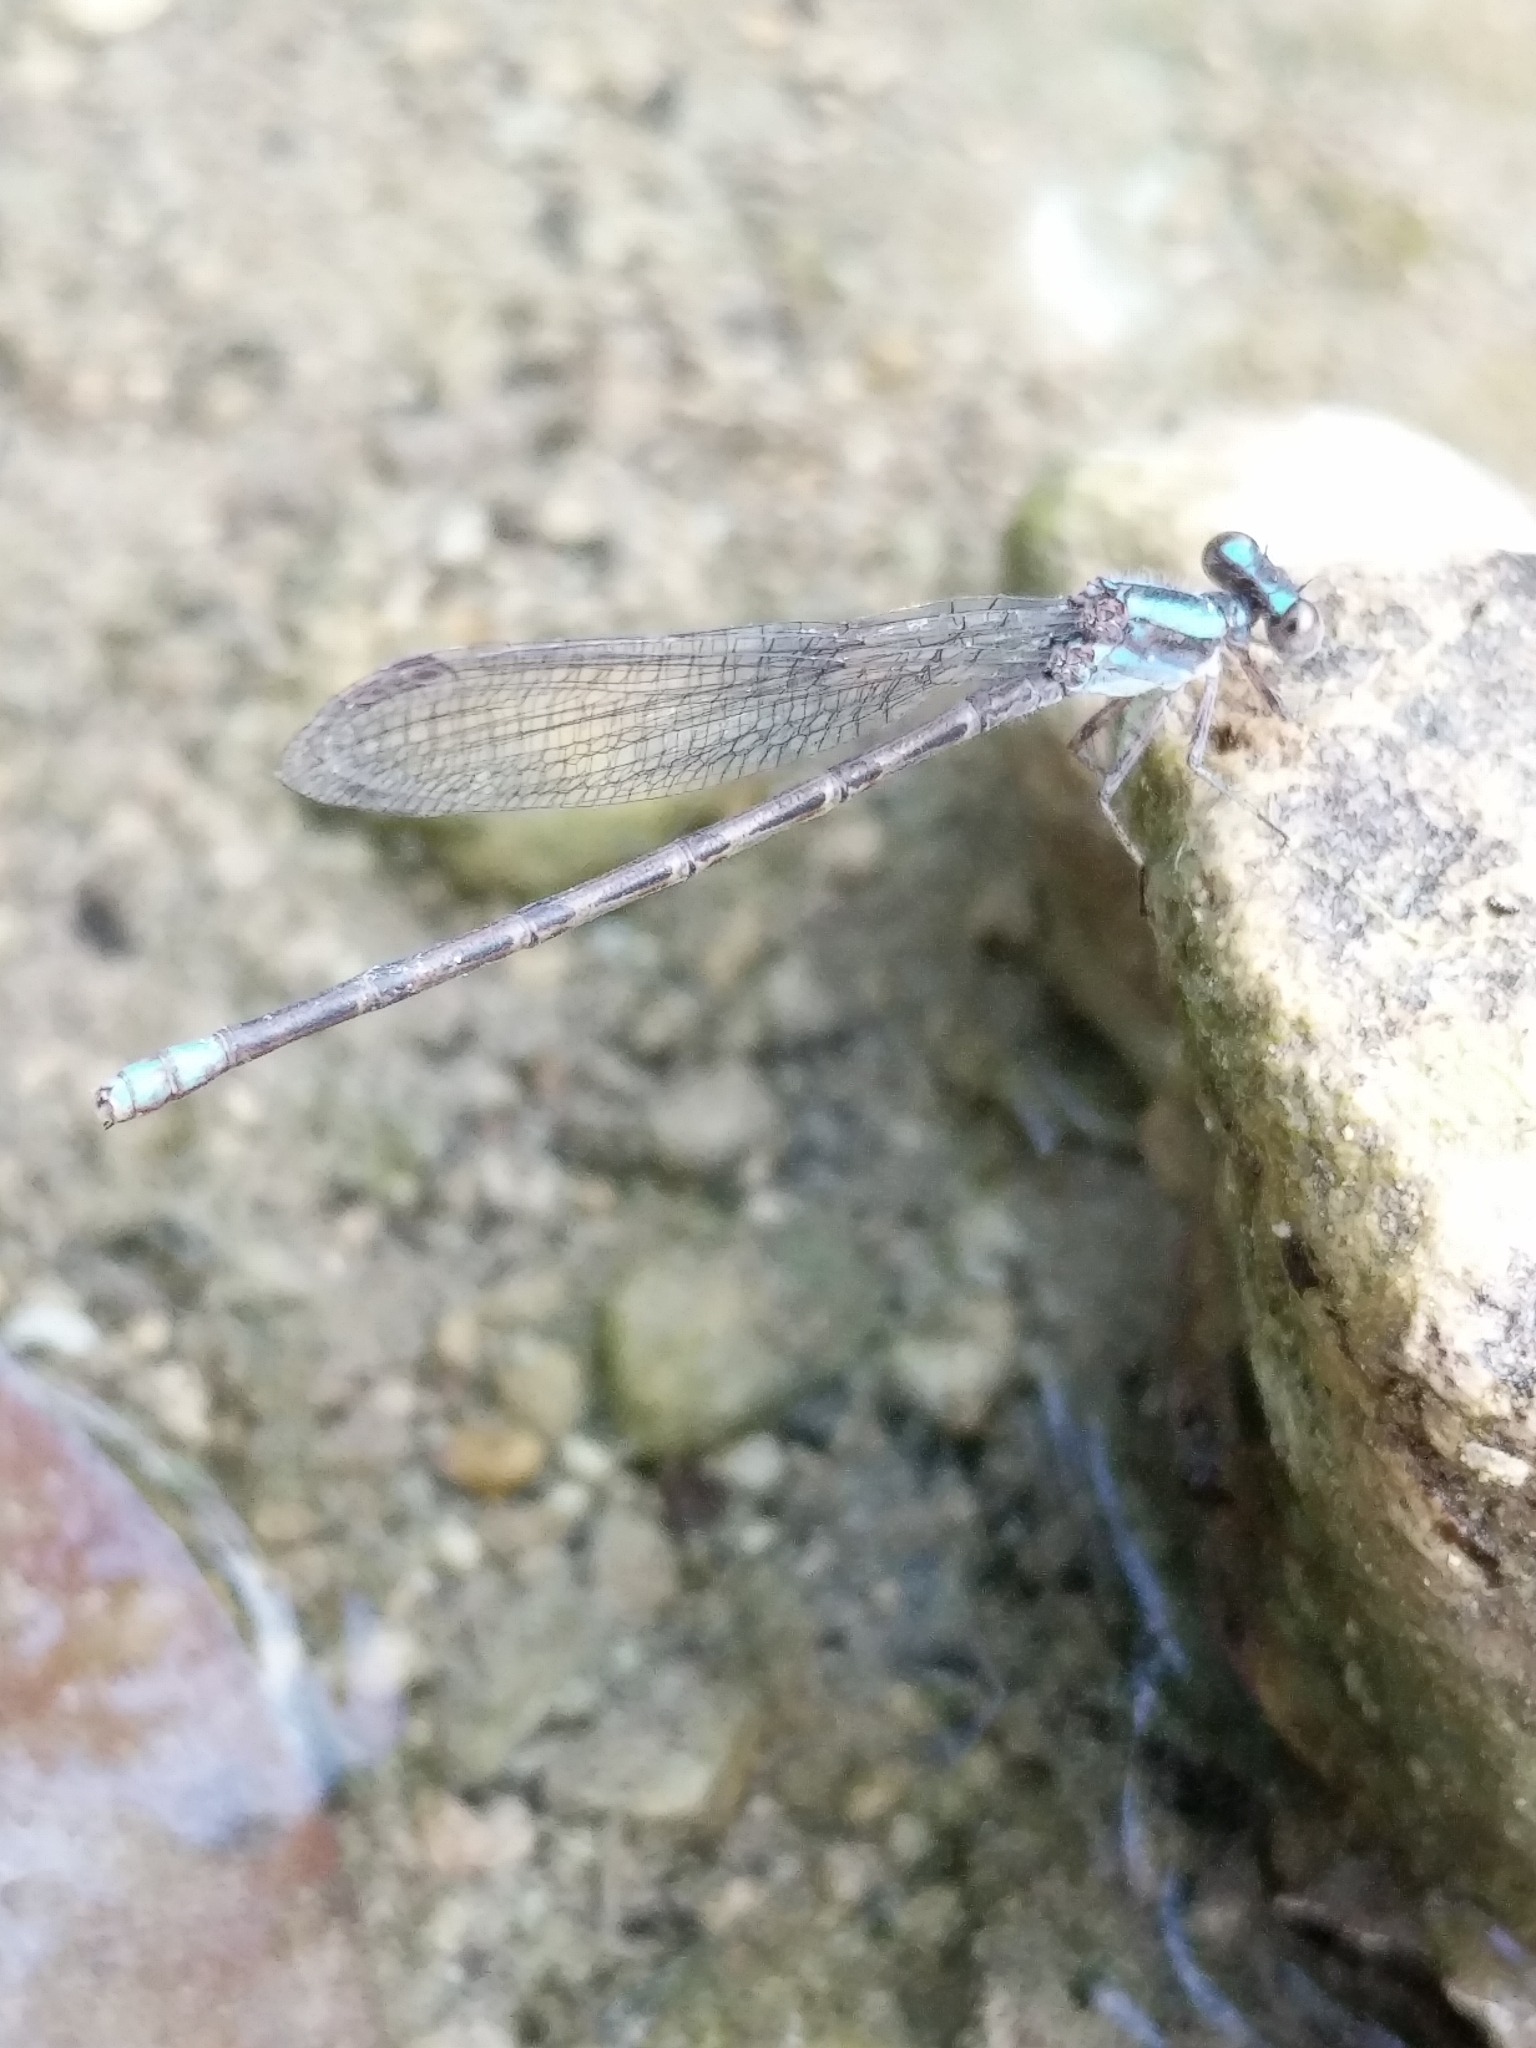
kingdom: Animalia
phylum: Arthropoda
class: Insecta
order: Odonata
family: Coenagrionidae
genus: Argia
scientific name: Argia immunda
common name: Kiowa dancer
